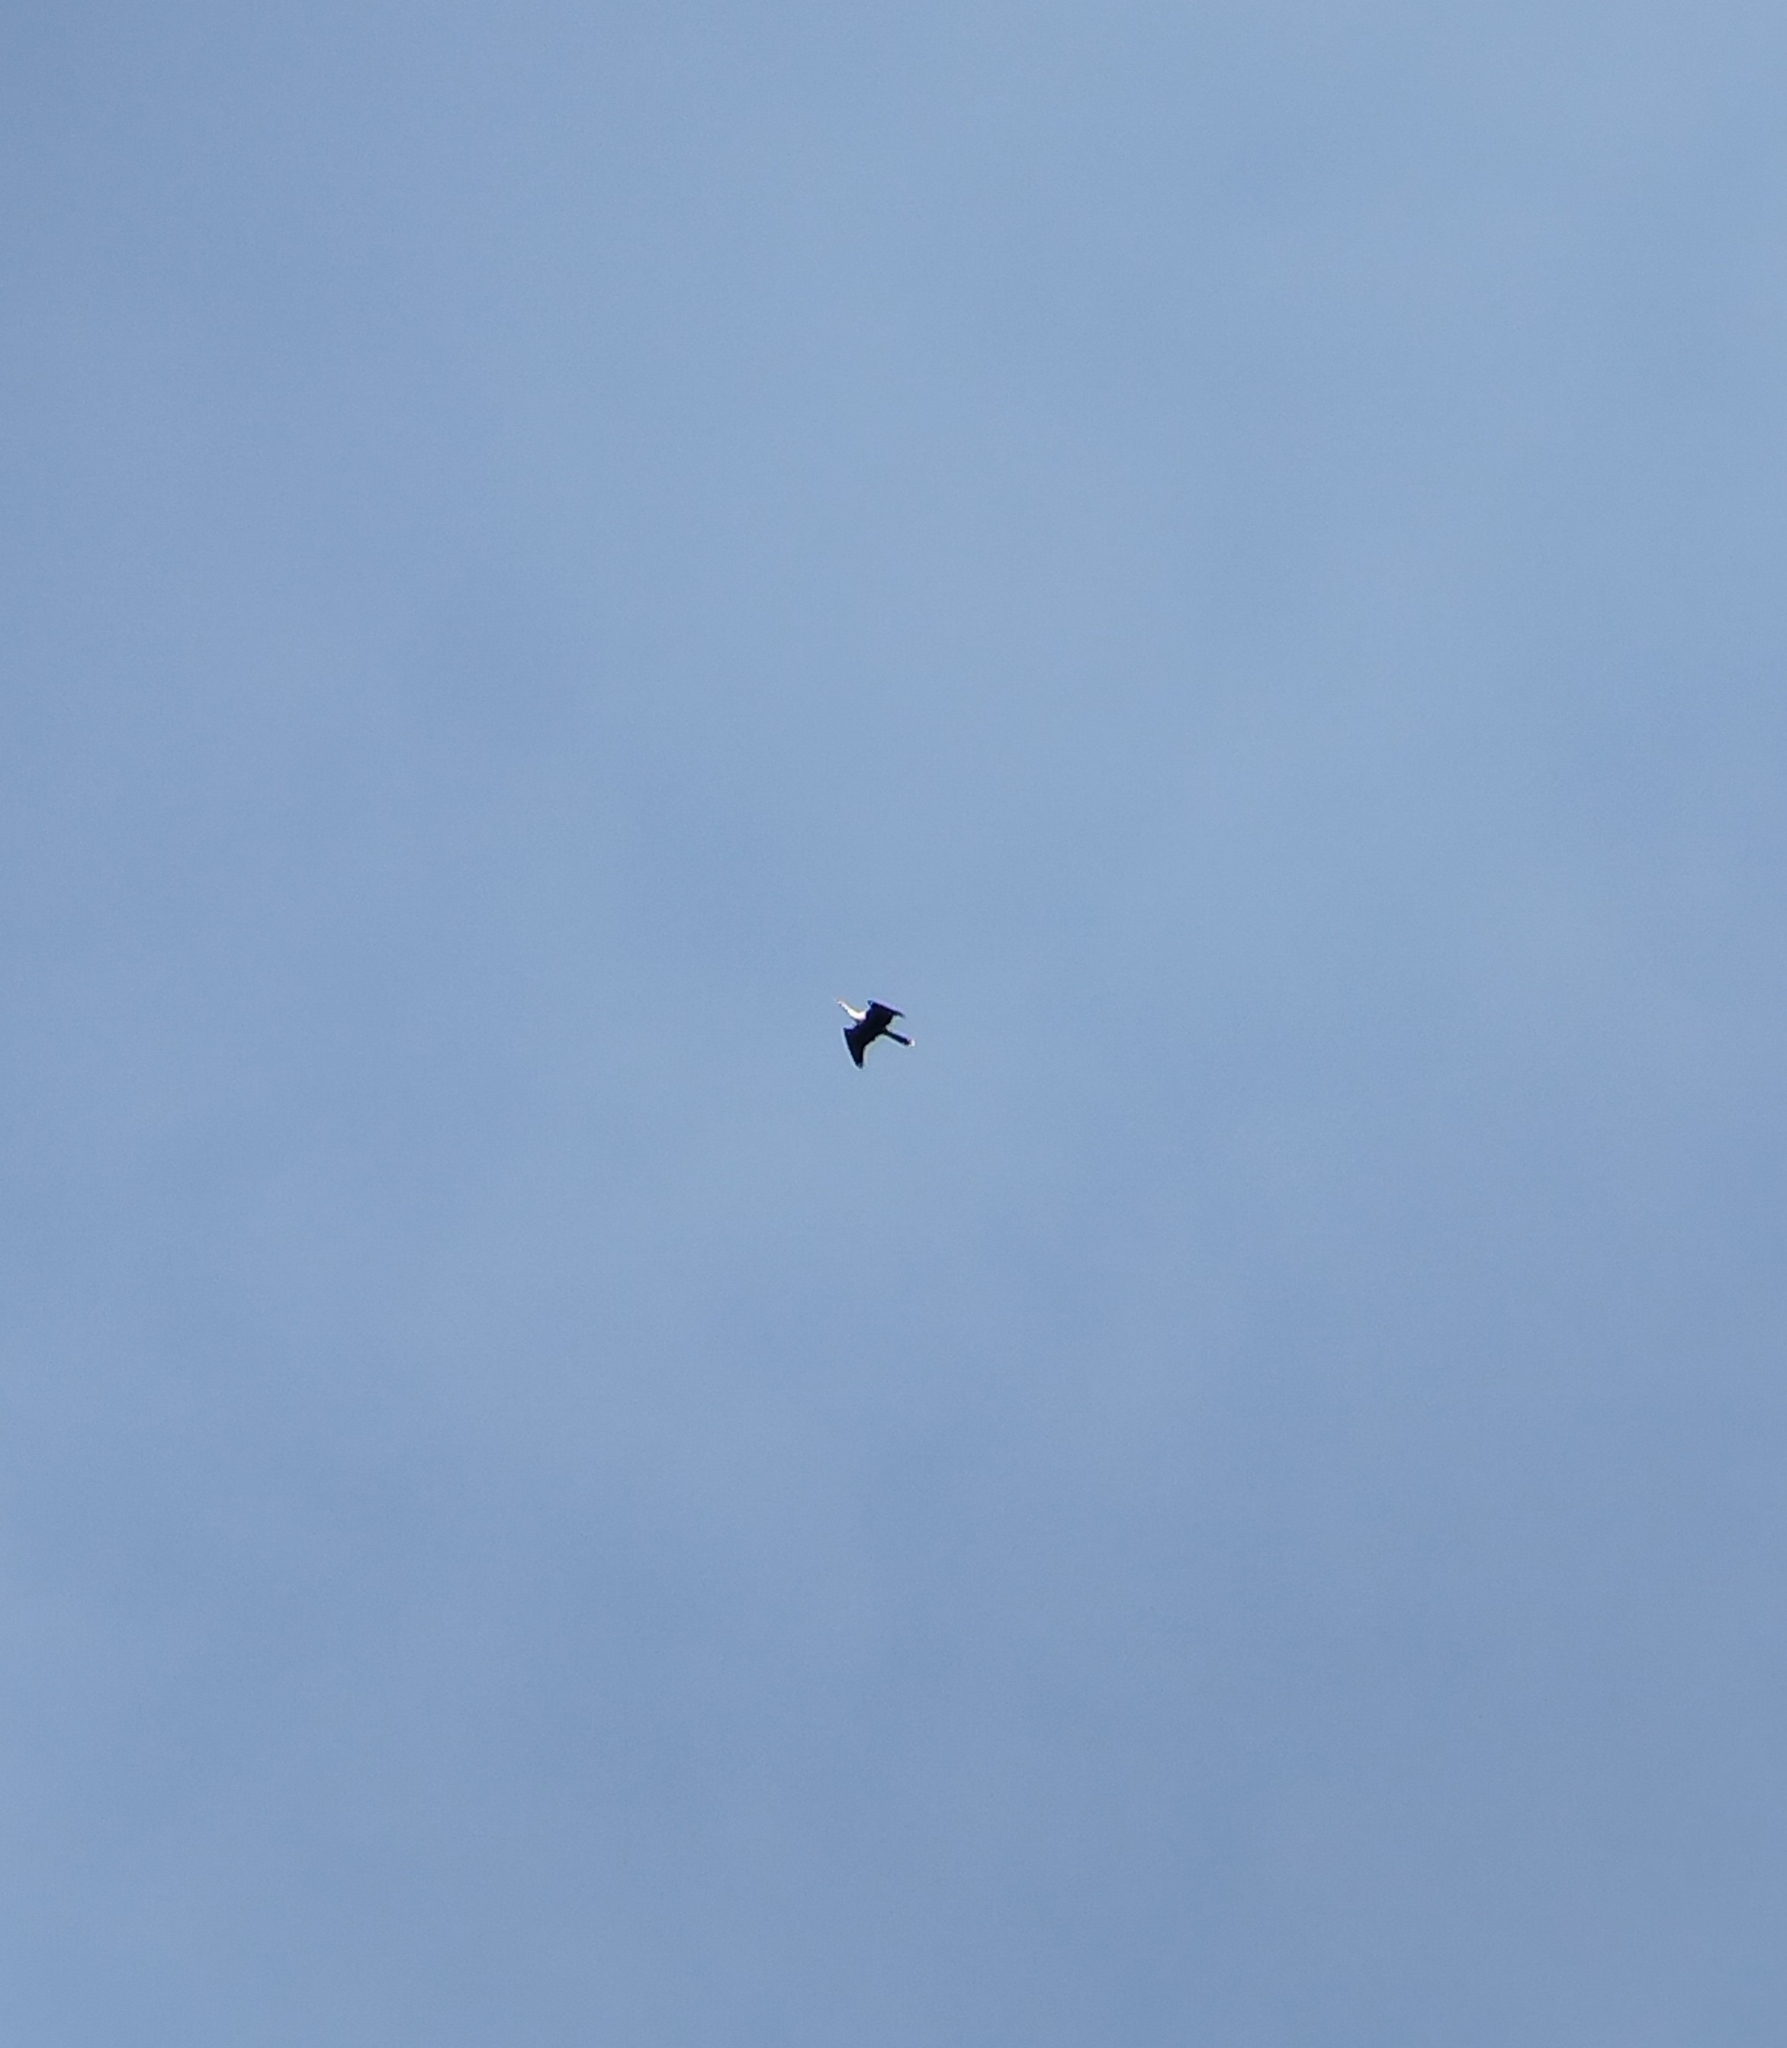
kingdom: Animalia
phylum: Chordata
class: Aves
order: Suliformes
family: Anhingidae
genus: Anhinga
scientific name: Anhinga anhinga
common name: Anhinga
